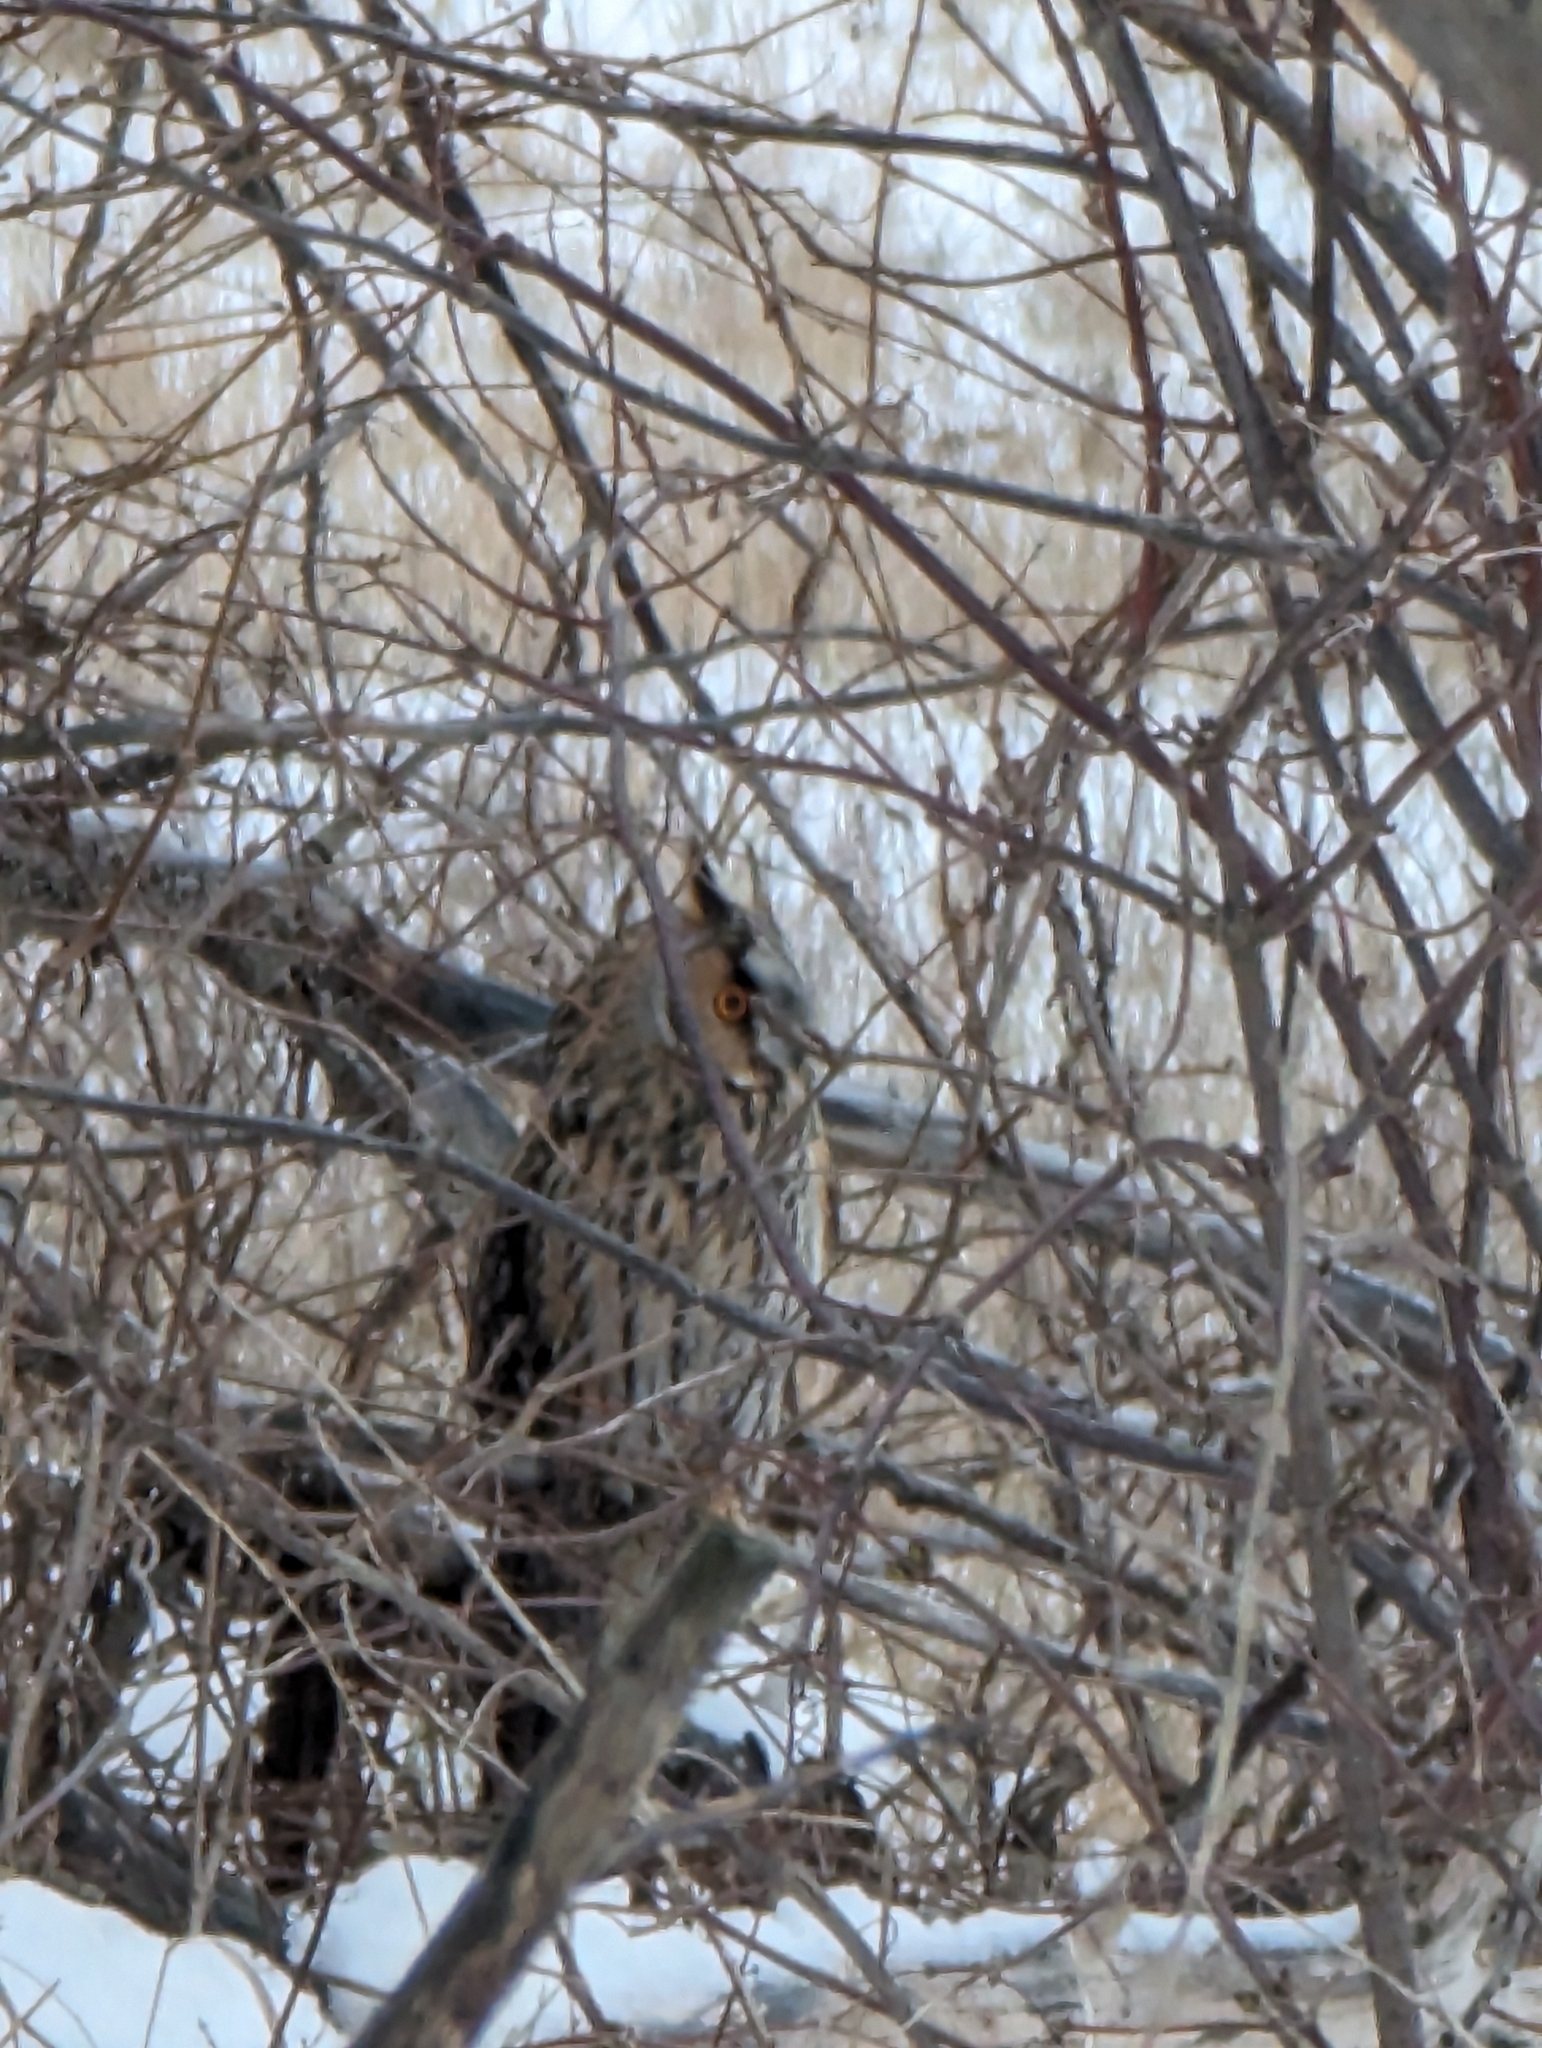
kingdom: Animalia
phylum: Chordata
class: Aves
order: Strigiformes
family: Strigidae
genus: Asio
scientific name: Asio otus
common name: Long-eared owl
